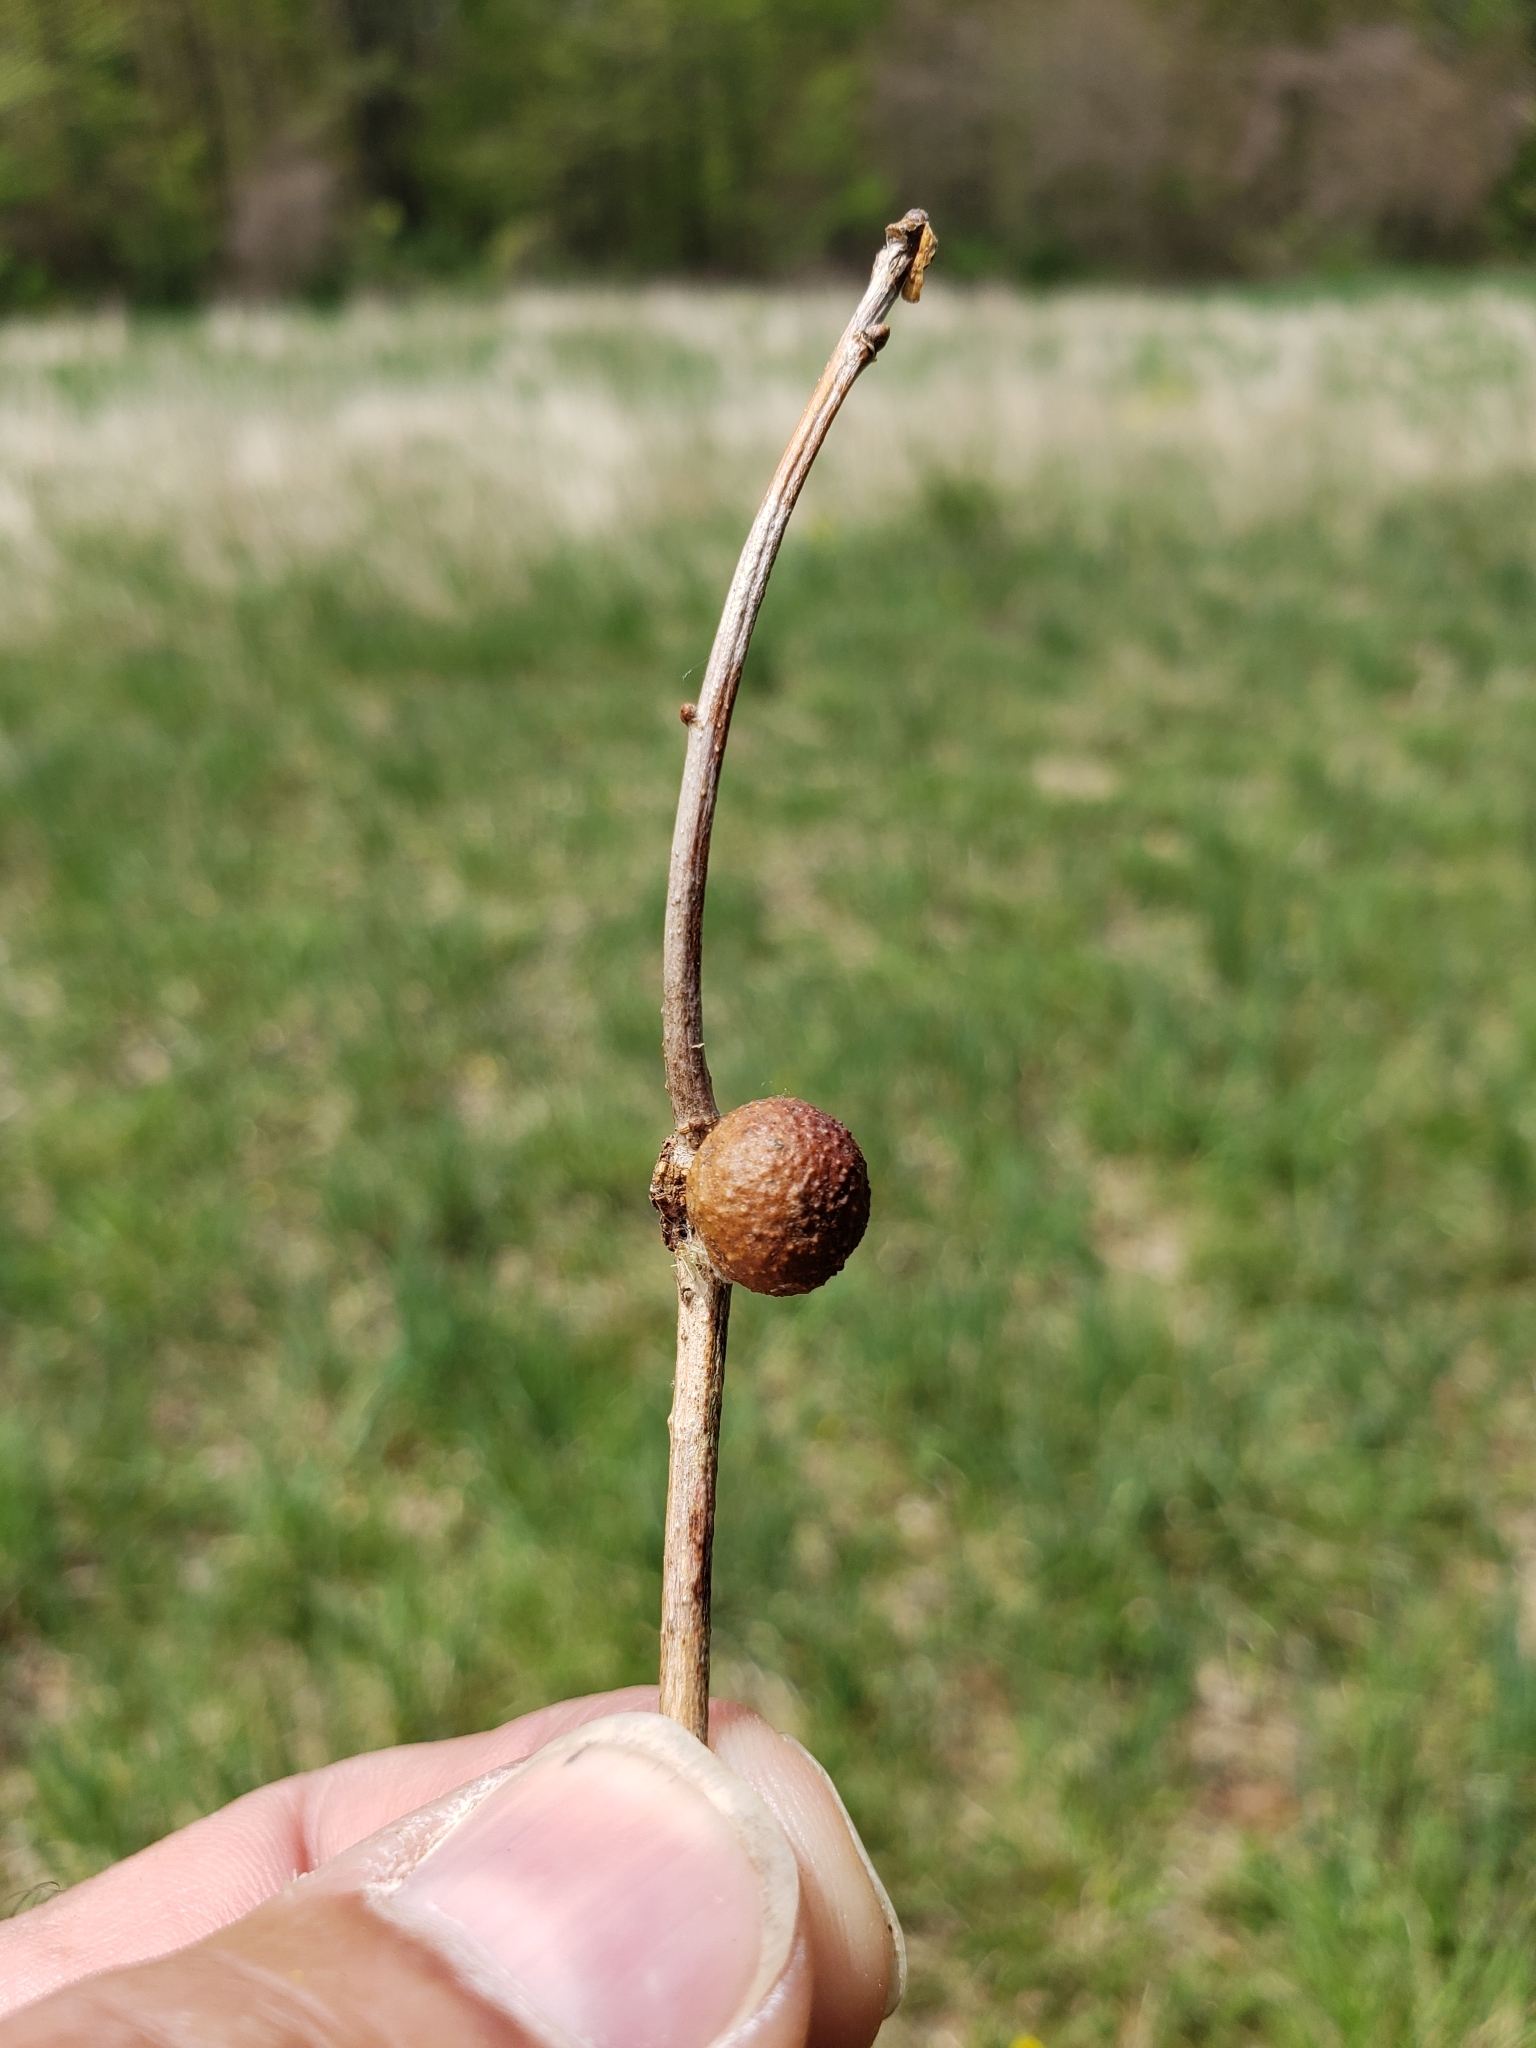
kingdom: Animalia
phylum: Arthropoda
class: Insecta
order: Hymenoptera
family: Cynipidae
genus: Disholcaspis
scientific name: Disholcaspis quercusglobulus
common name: Round bullet gall wasp
